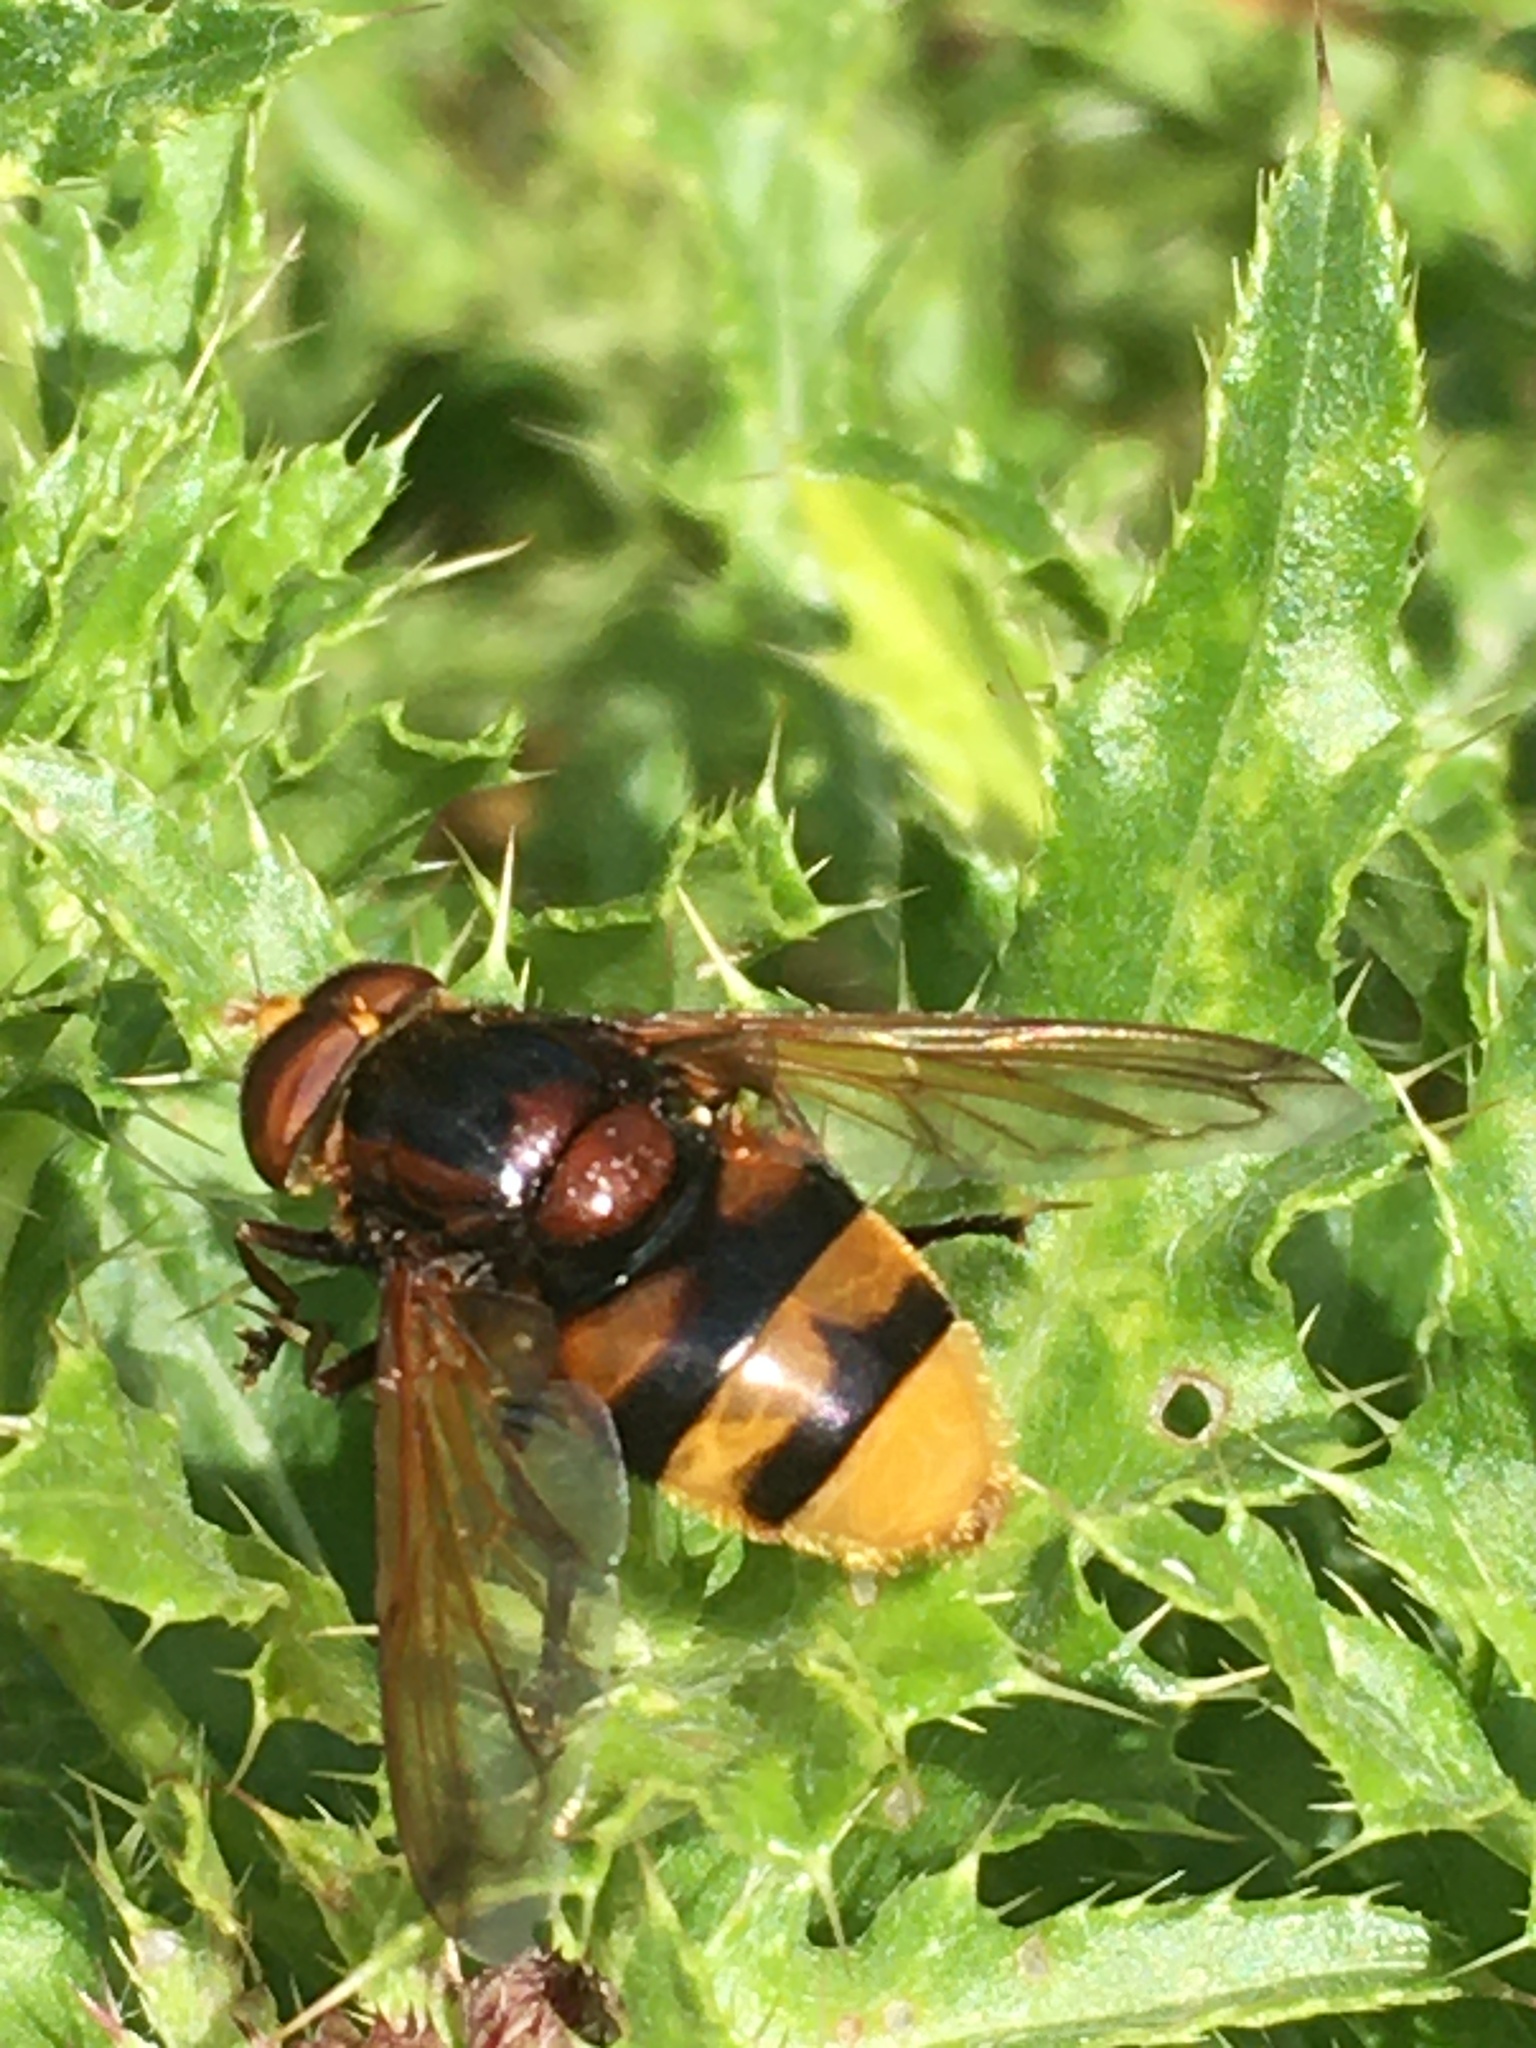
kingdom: Animalia
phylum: Arthropoda
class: Insecta
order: Diptera
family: Syrphidae
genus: Volucella
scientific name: Volucella zonaria
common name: Hornet hoverfly
